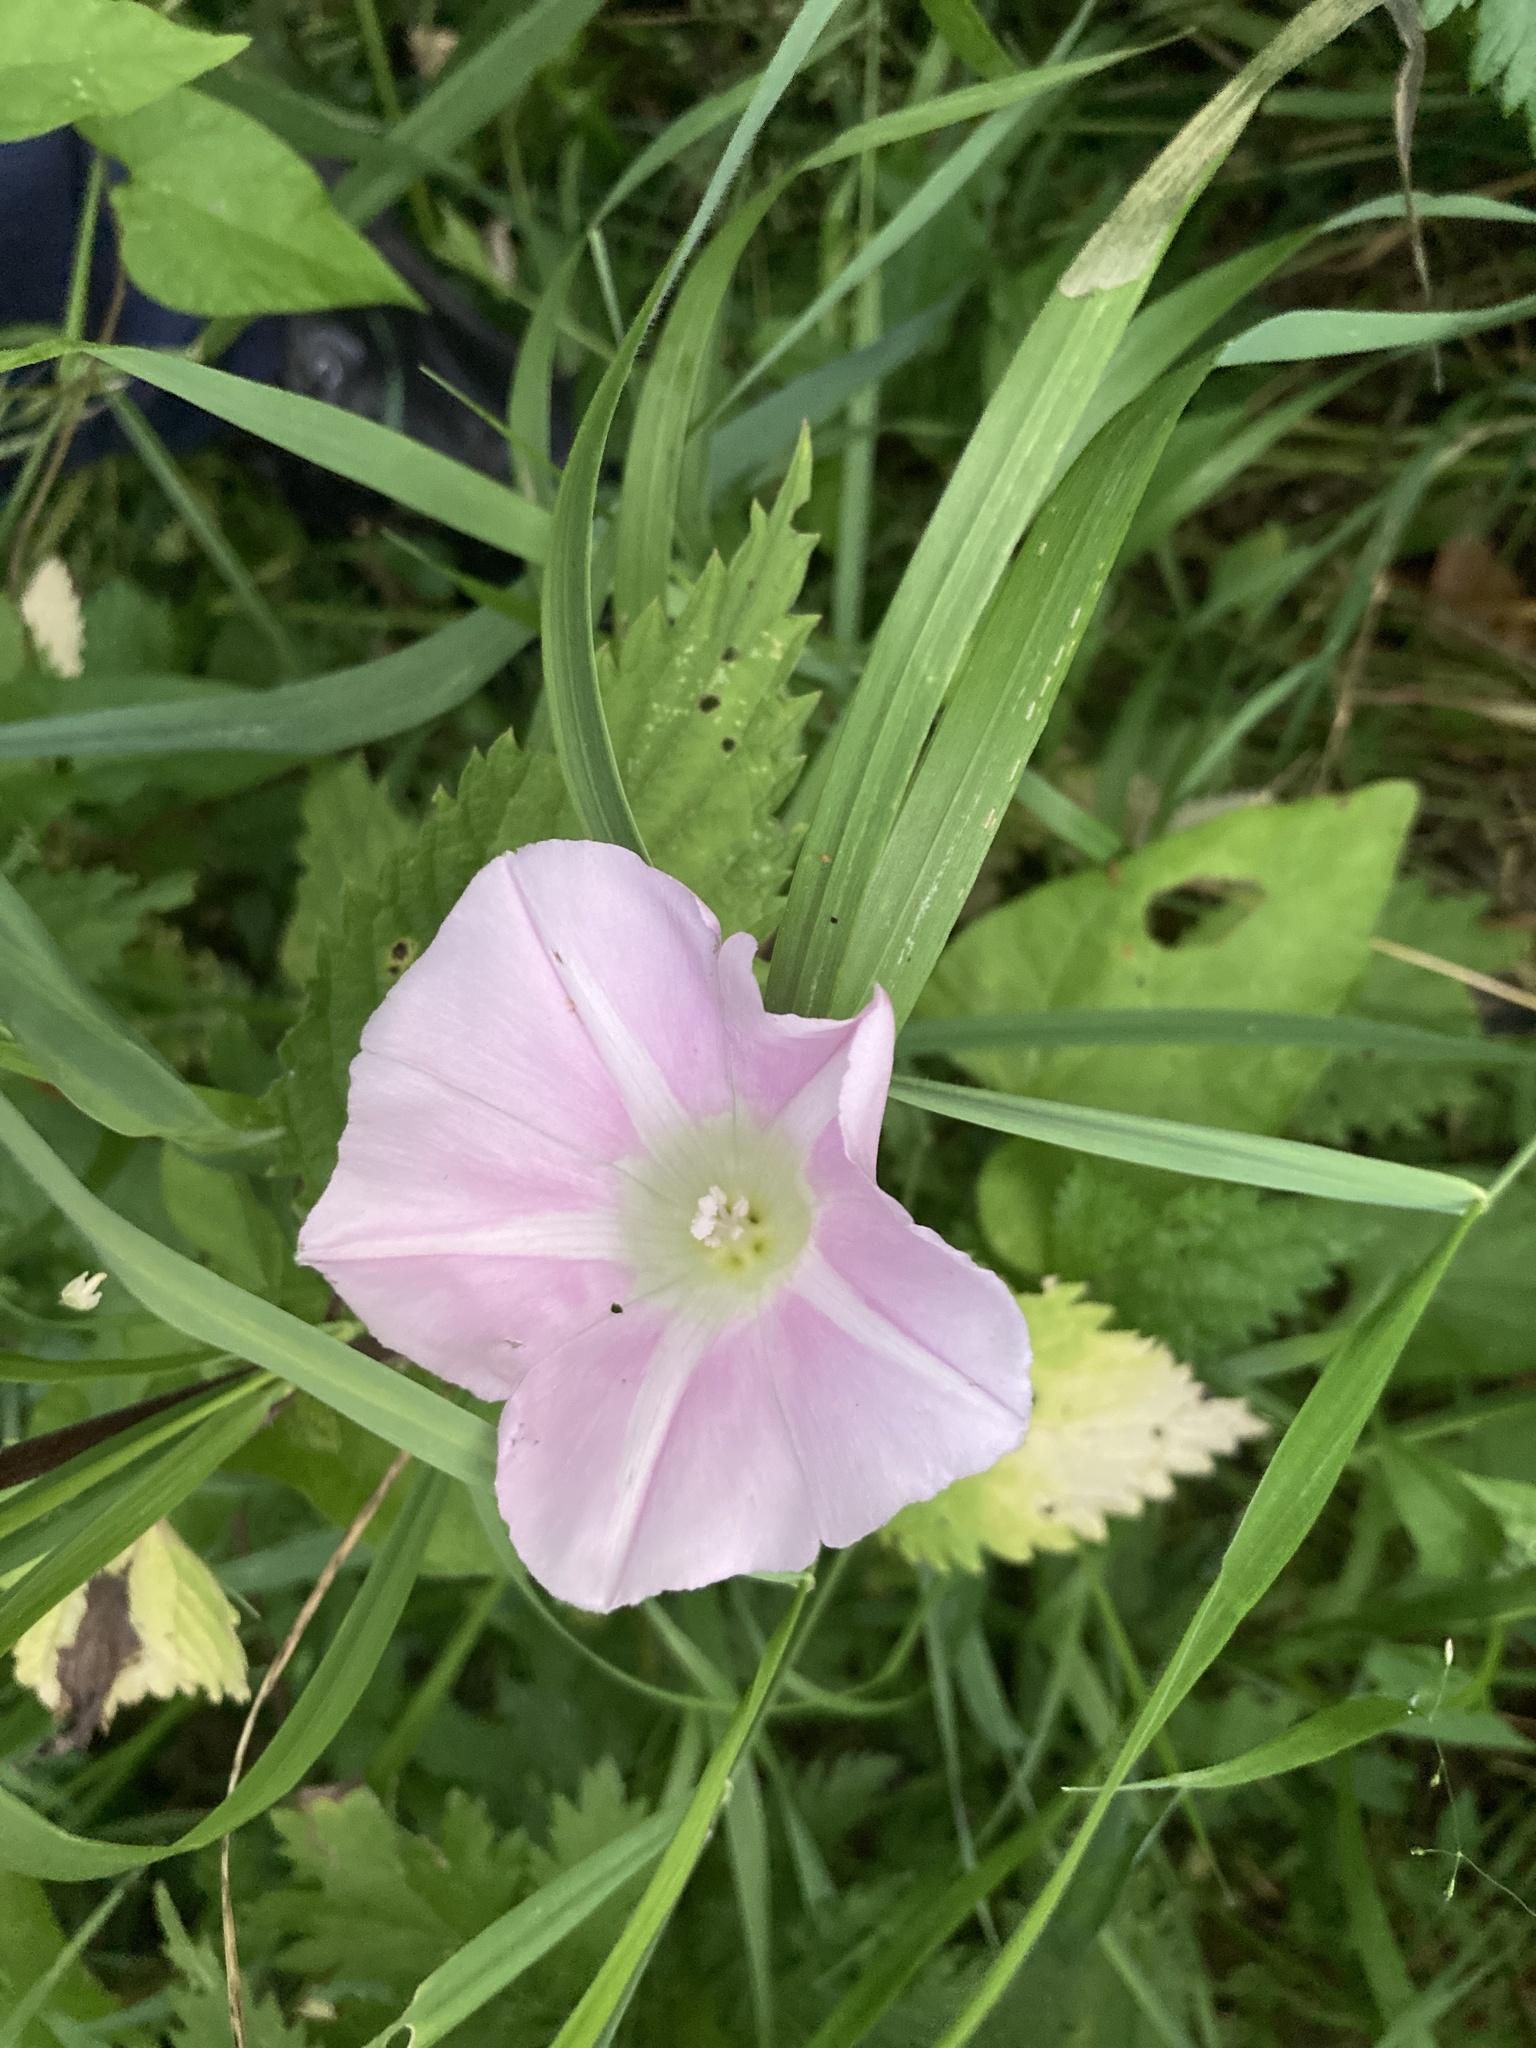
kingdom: Plantae
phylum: Tracheophyta
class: Magnoliopsida
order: Solanales
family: Convolvulaceae
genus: Calystegia
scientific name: Calystegia sepium
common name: Hedge bindweed
